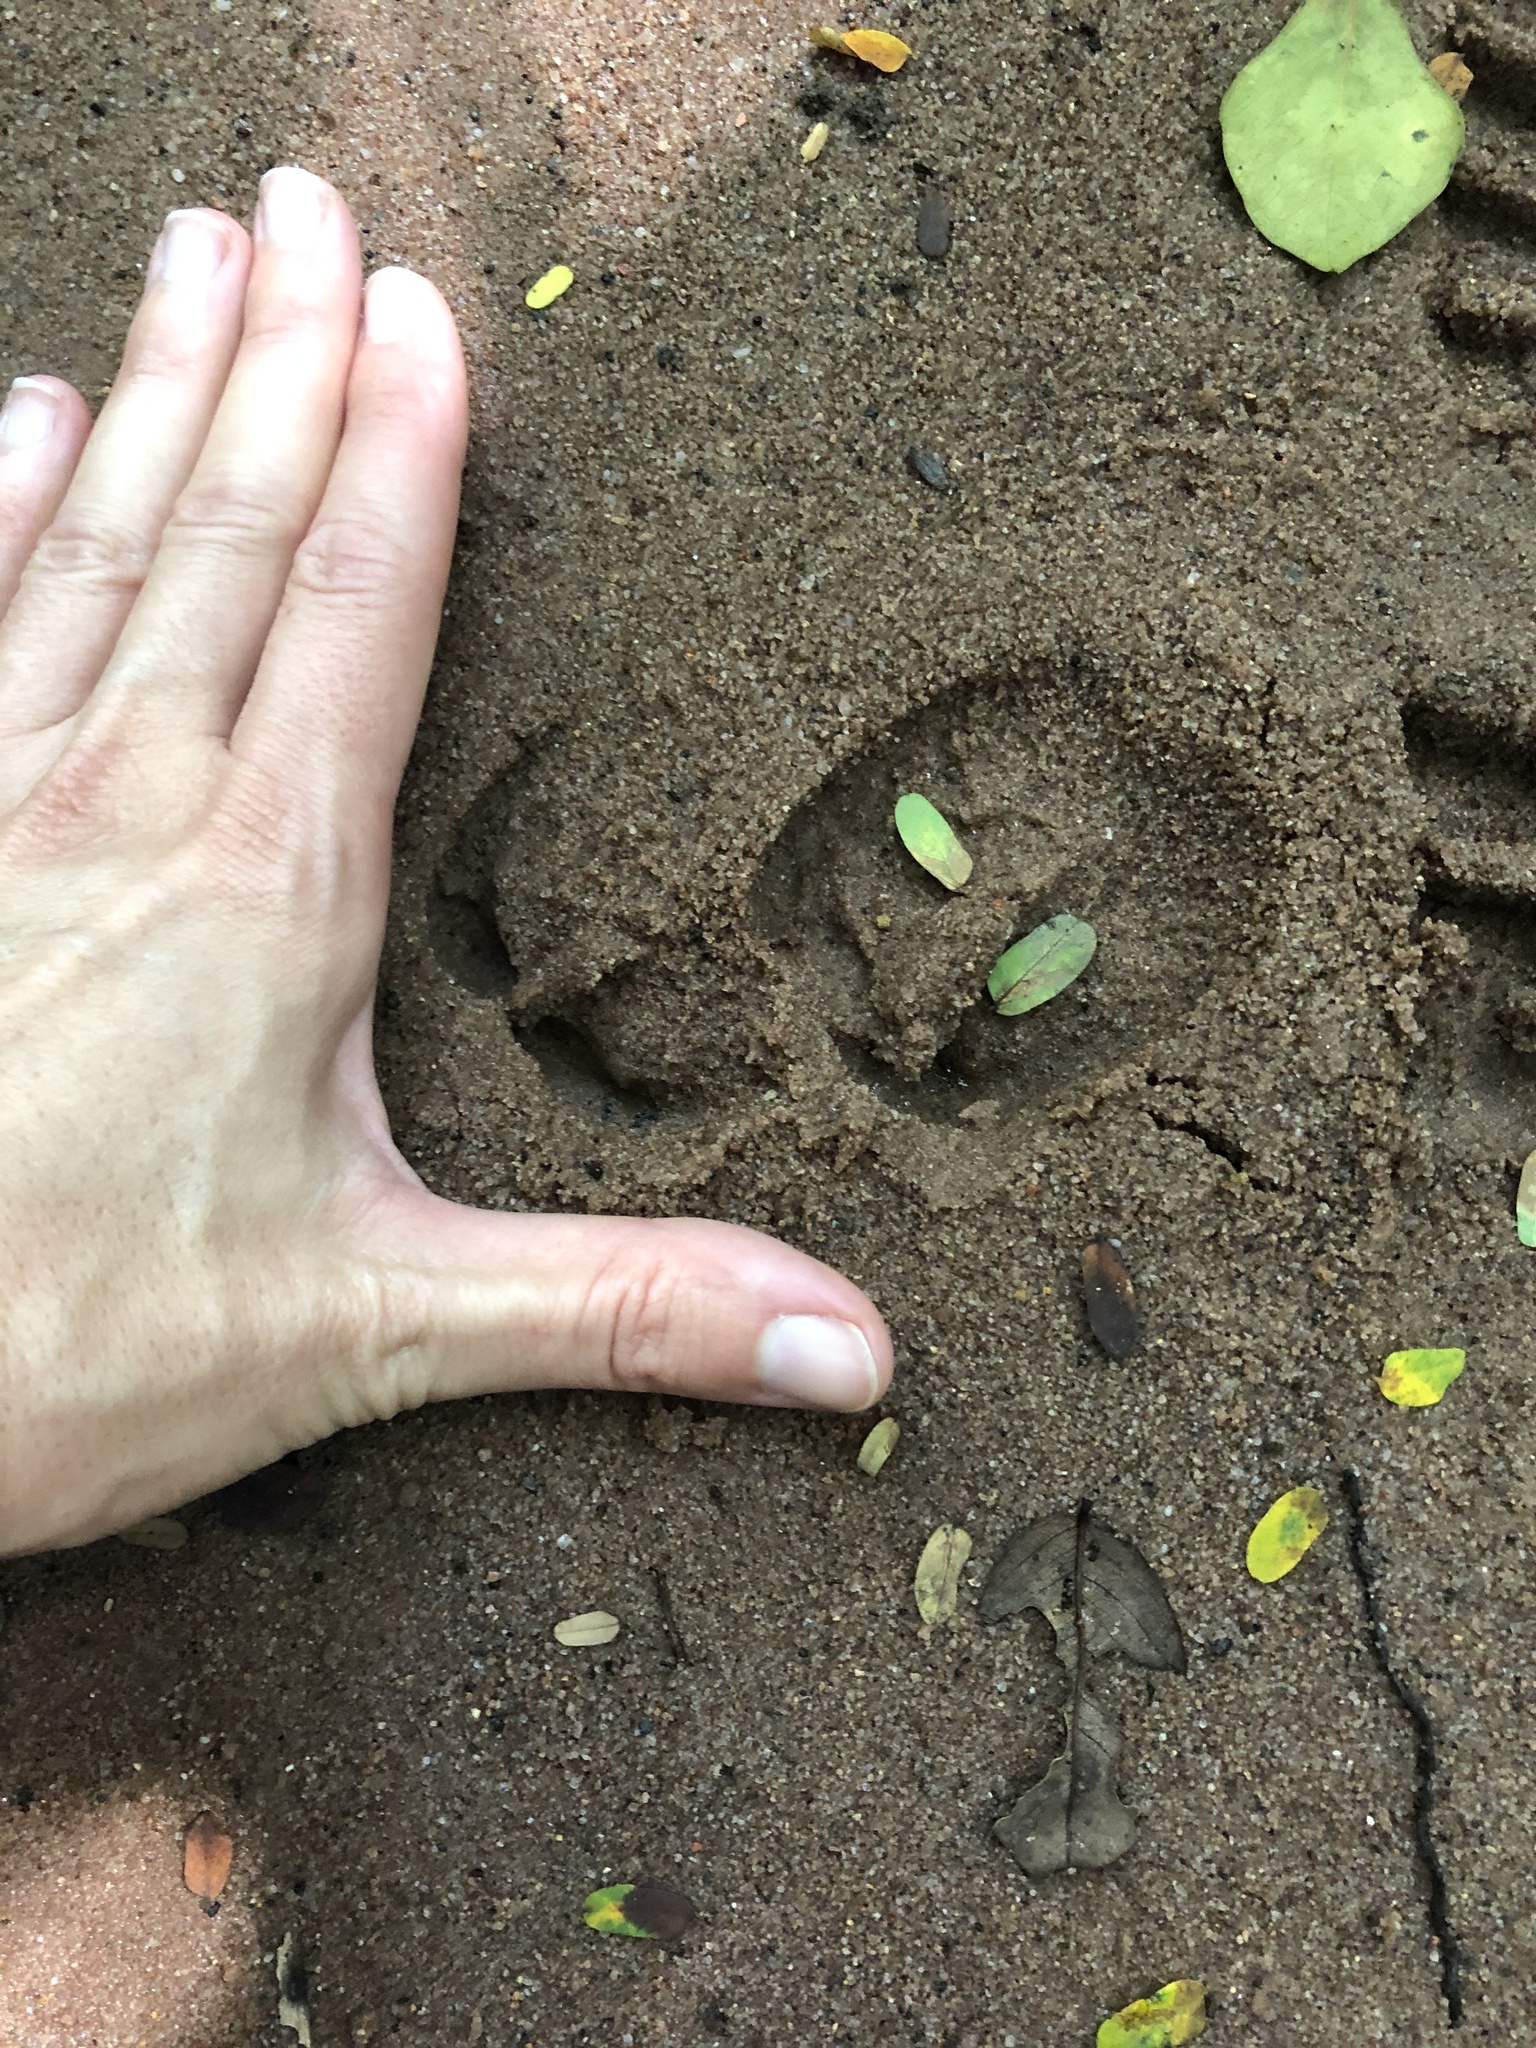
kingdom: Animalia
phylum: Chordata
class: Mammalia
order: Artiodactyla
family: Suidae
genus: Potamochoerus
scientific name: Potamochoerus larvatus
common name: Bushpig
